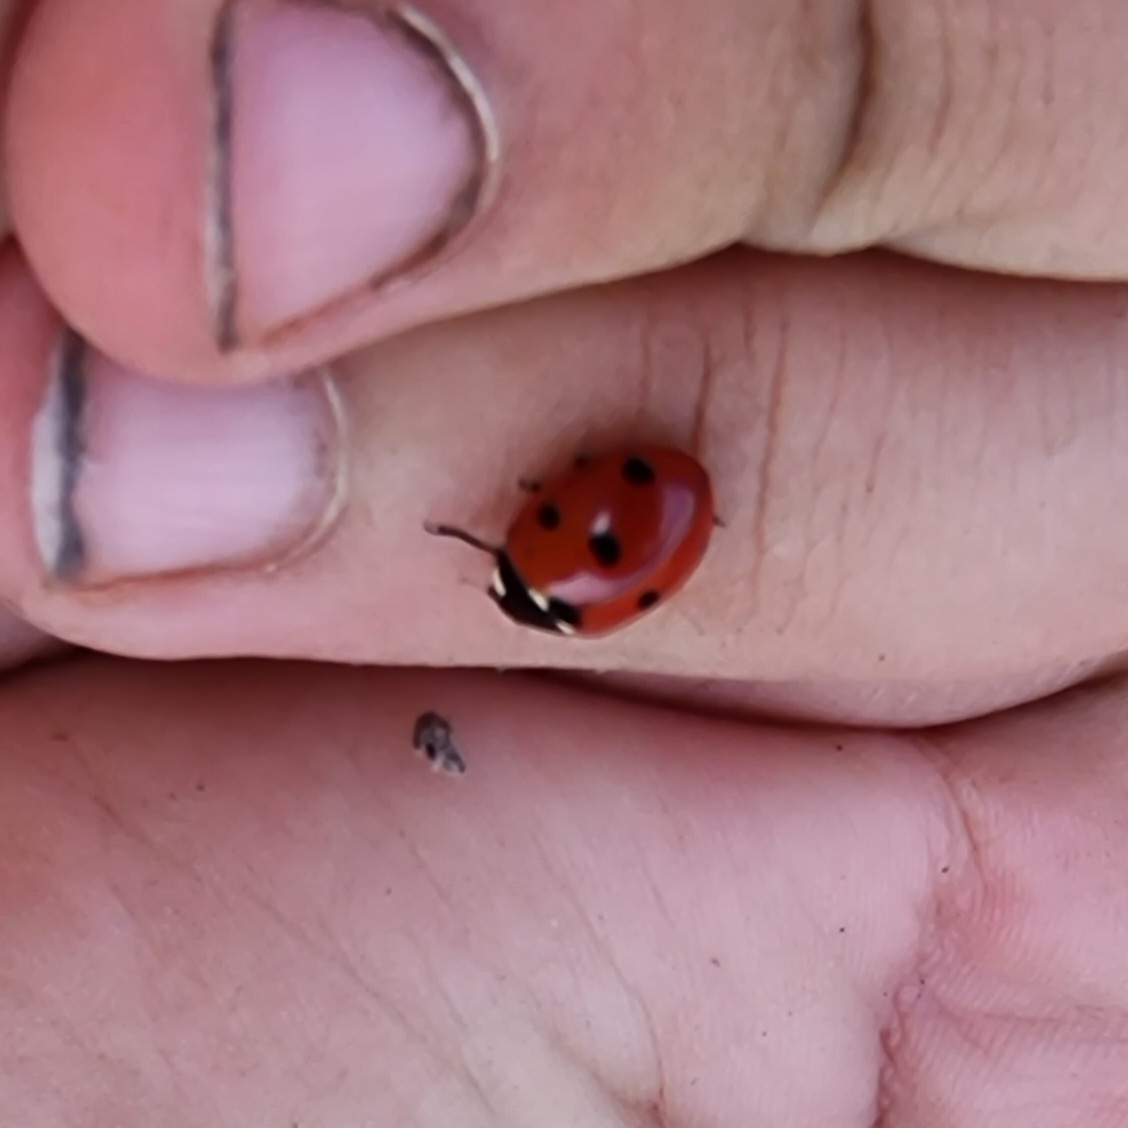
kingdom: Animalia
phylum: Arthropoda
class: Insecta
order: Coleoptera
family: Coccinellidae
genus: Coccinella
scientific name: Coccinella septempunctata
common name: Sevenspotted lady beetle
